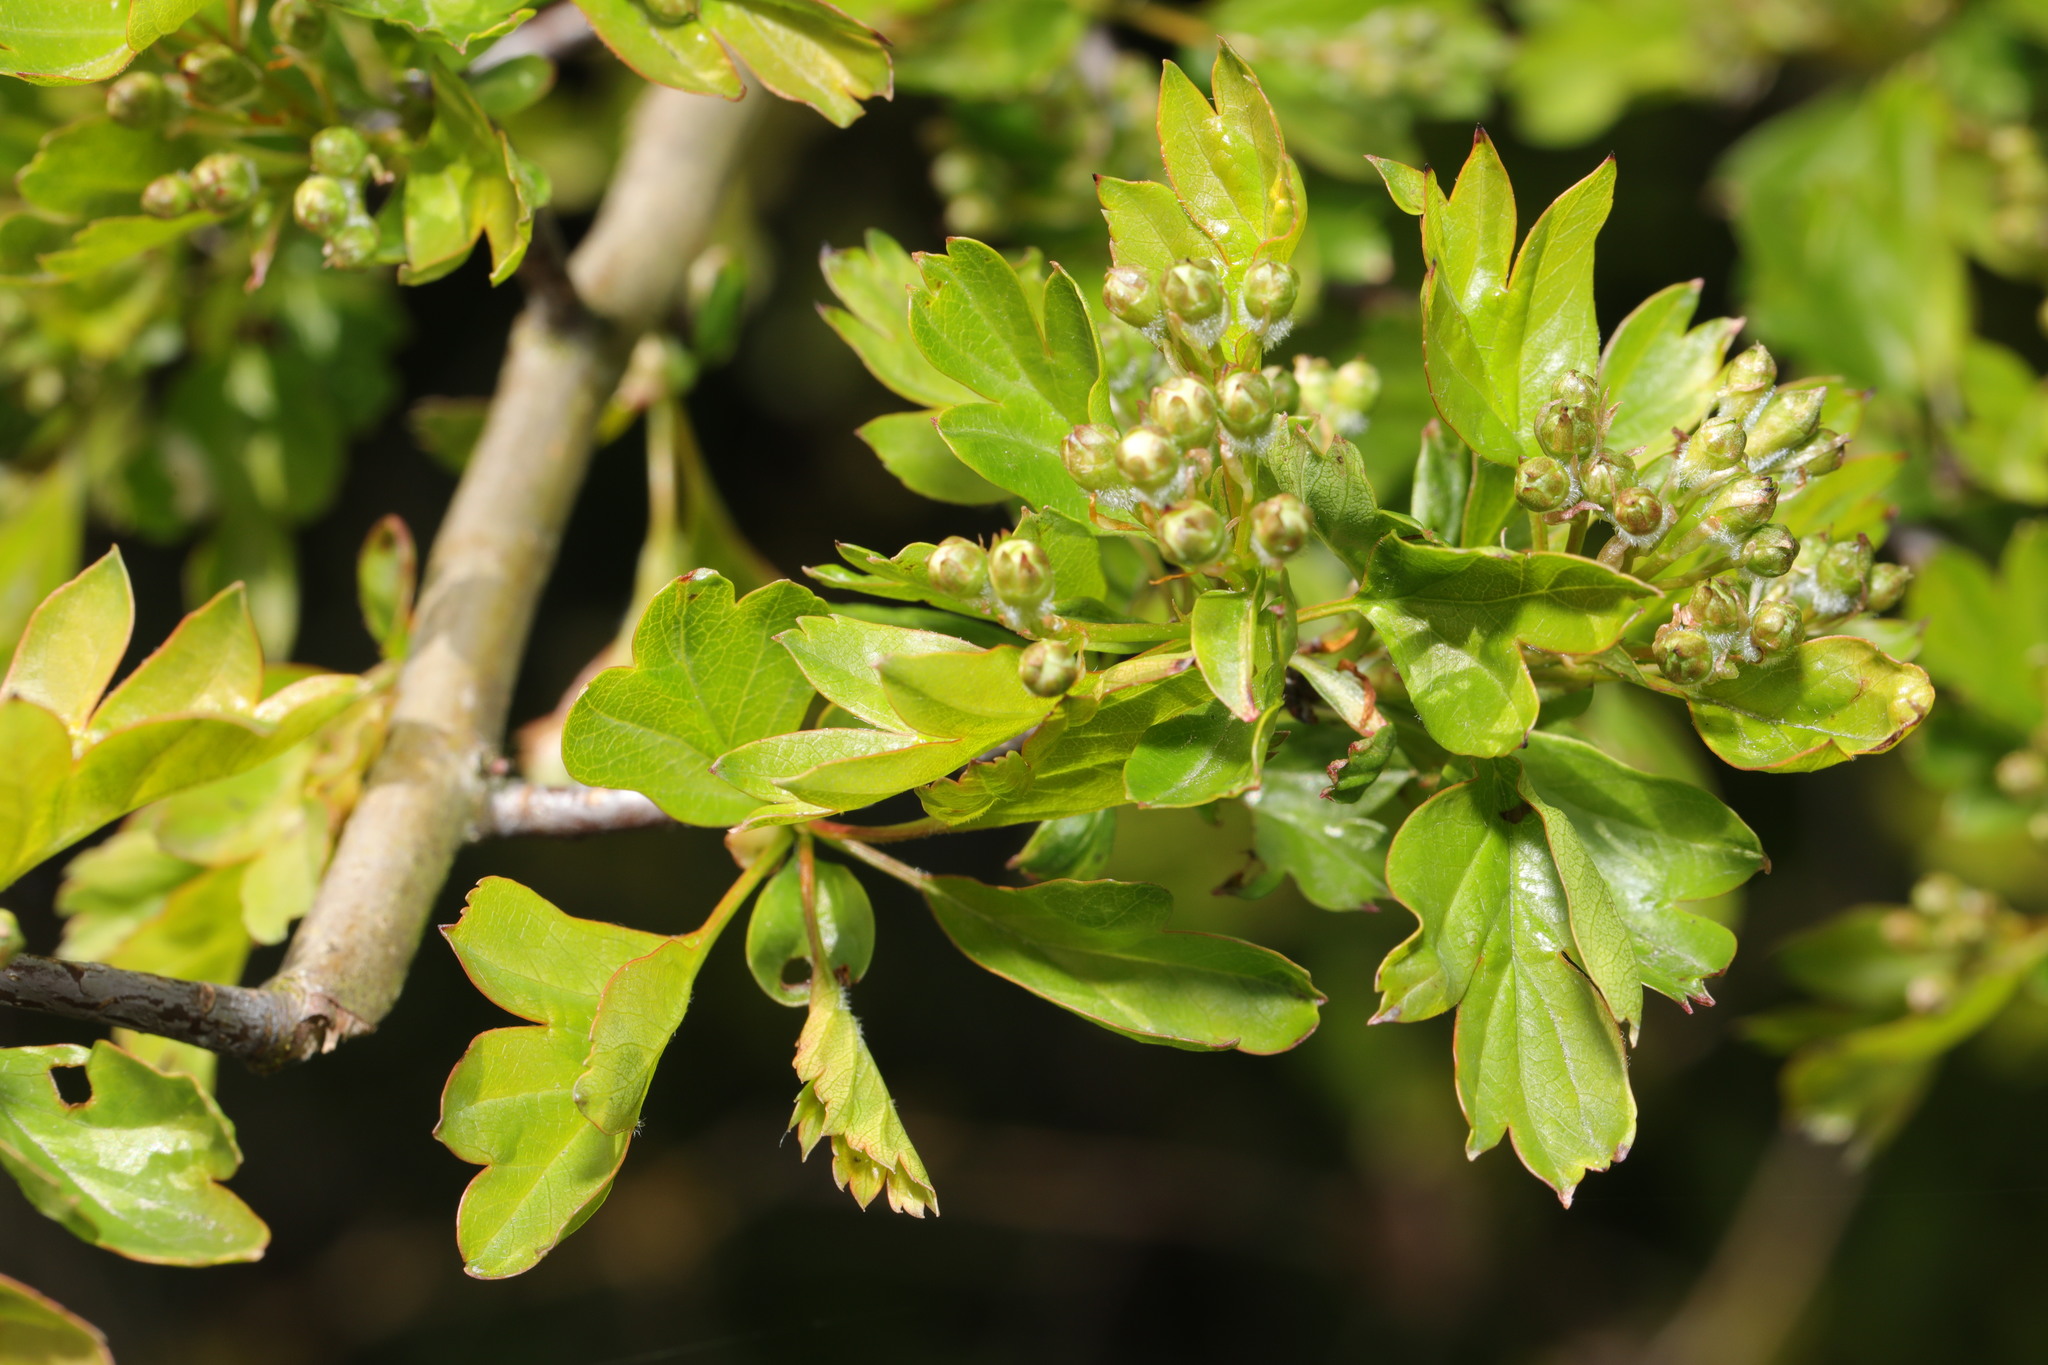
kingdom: Plantae
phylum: Tracheophyta
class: Magnoliopsida
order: Rosales
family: Rosaceae
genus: Crataegus
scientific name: Crataegus monogyna
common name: Hawthorn
